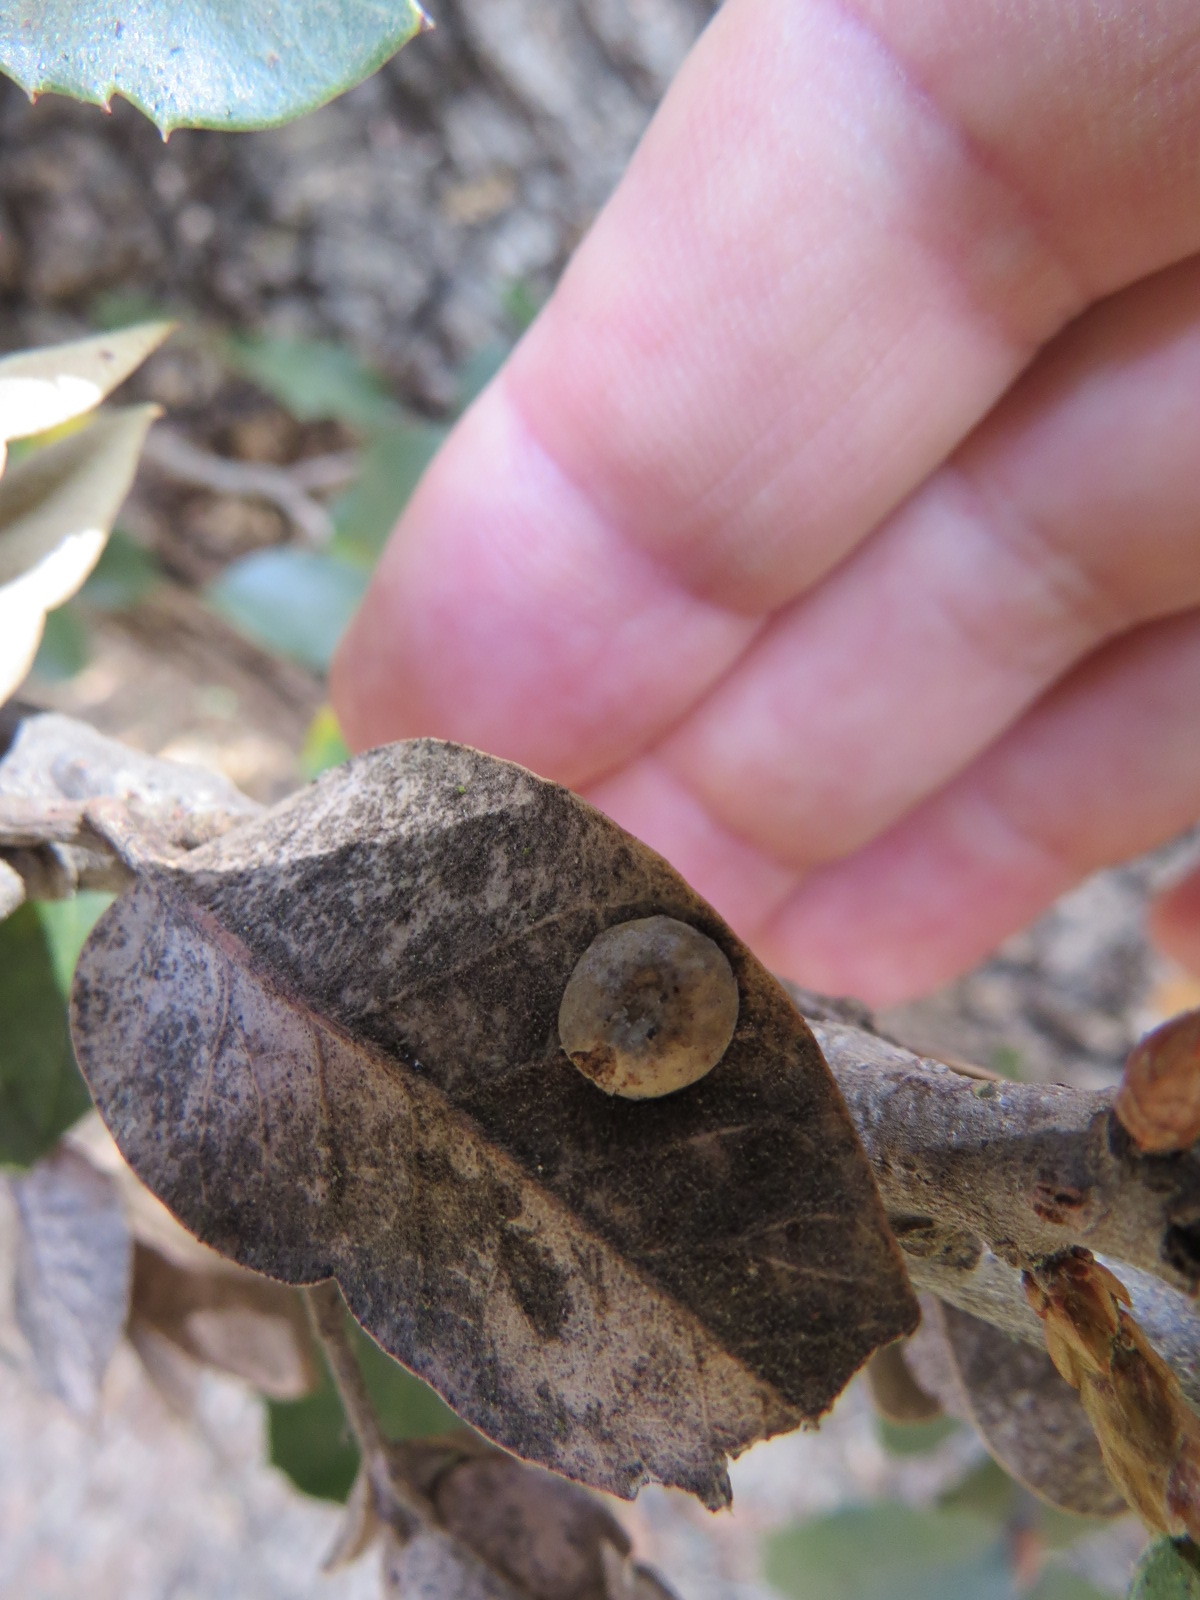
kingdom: Animalia
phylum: Arthropoda
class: Insecta
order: Hymenoptera
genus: Paracraspis
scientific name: Paracraspis
